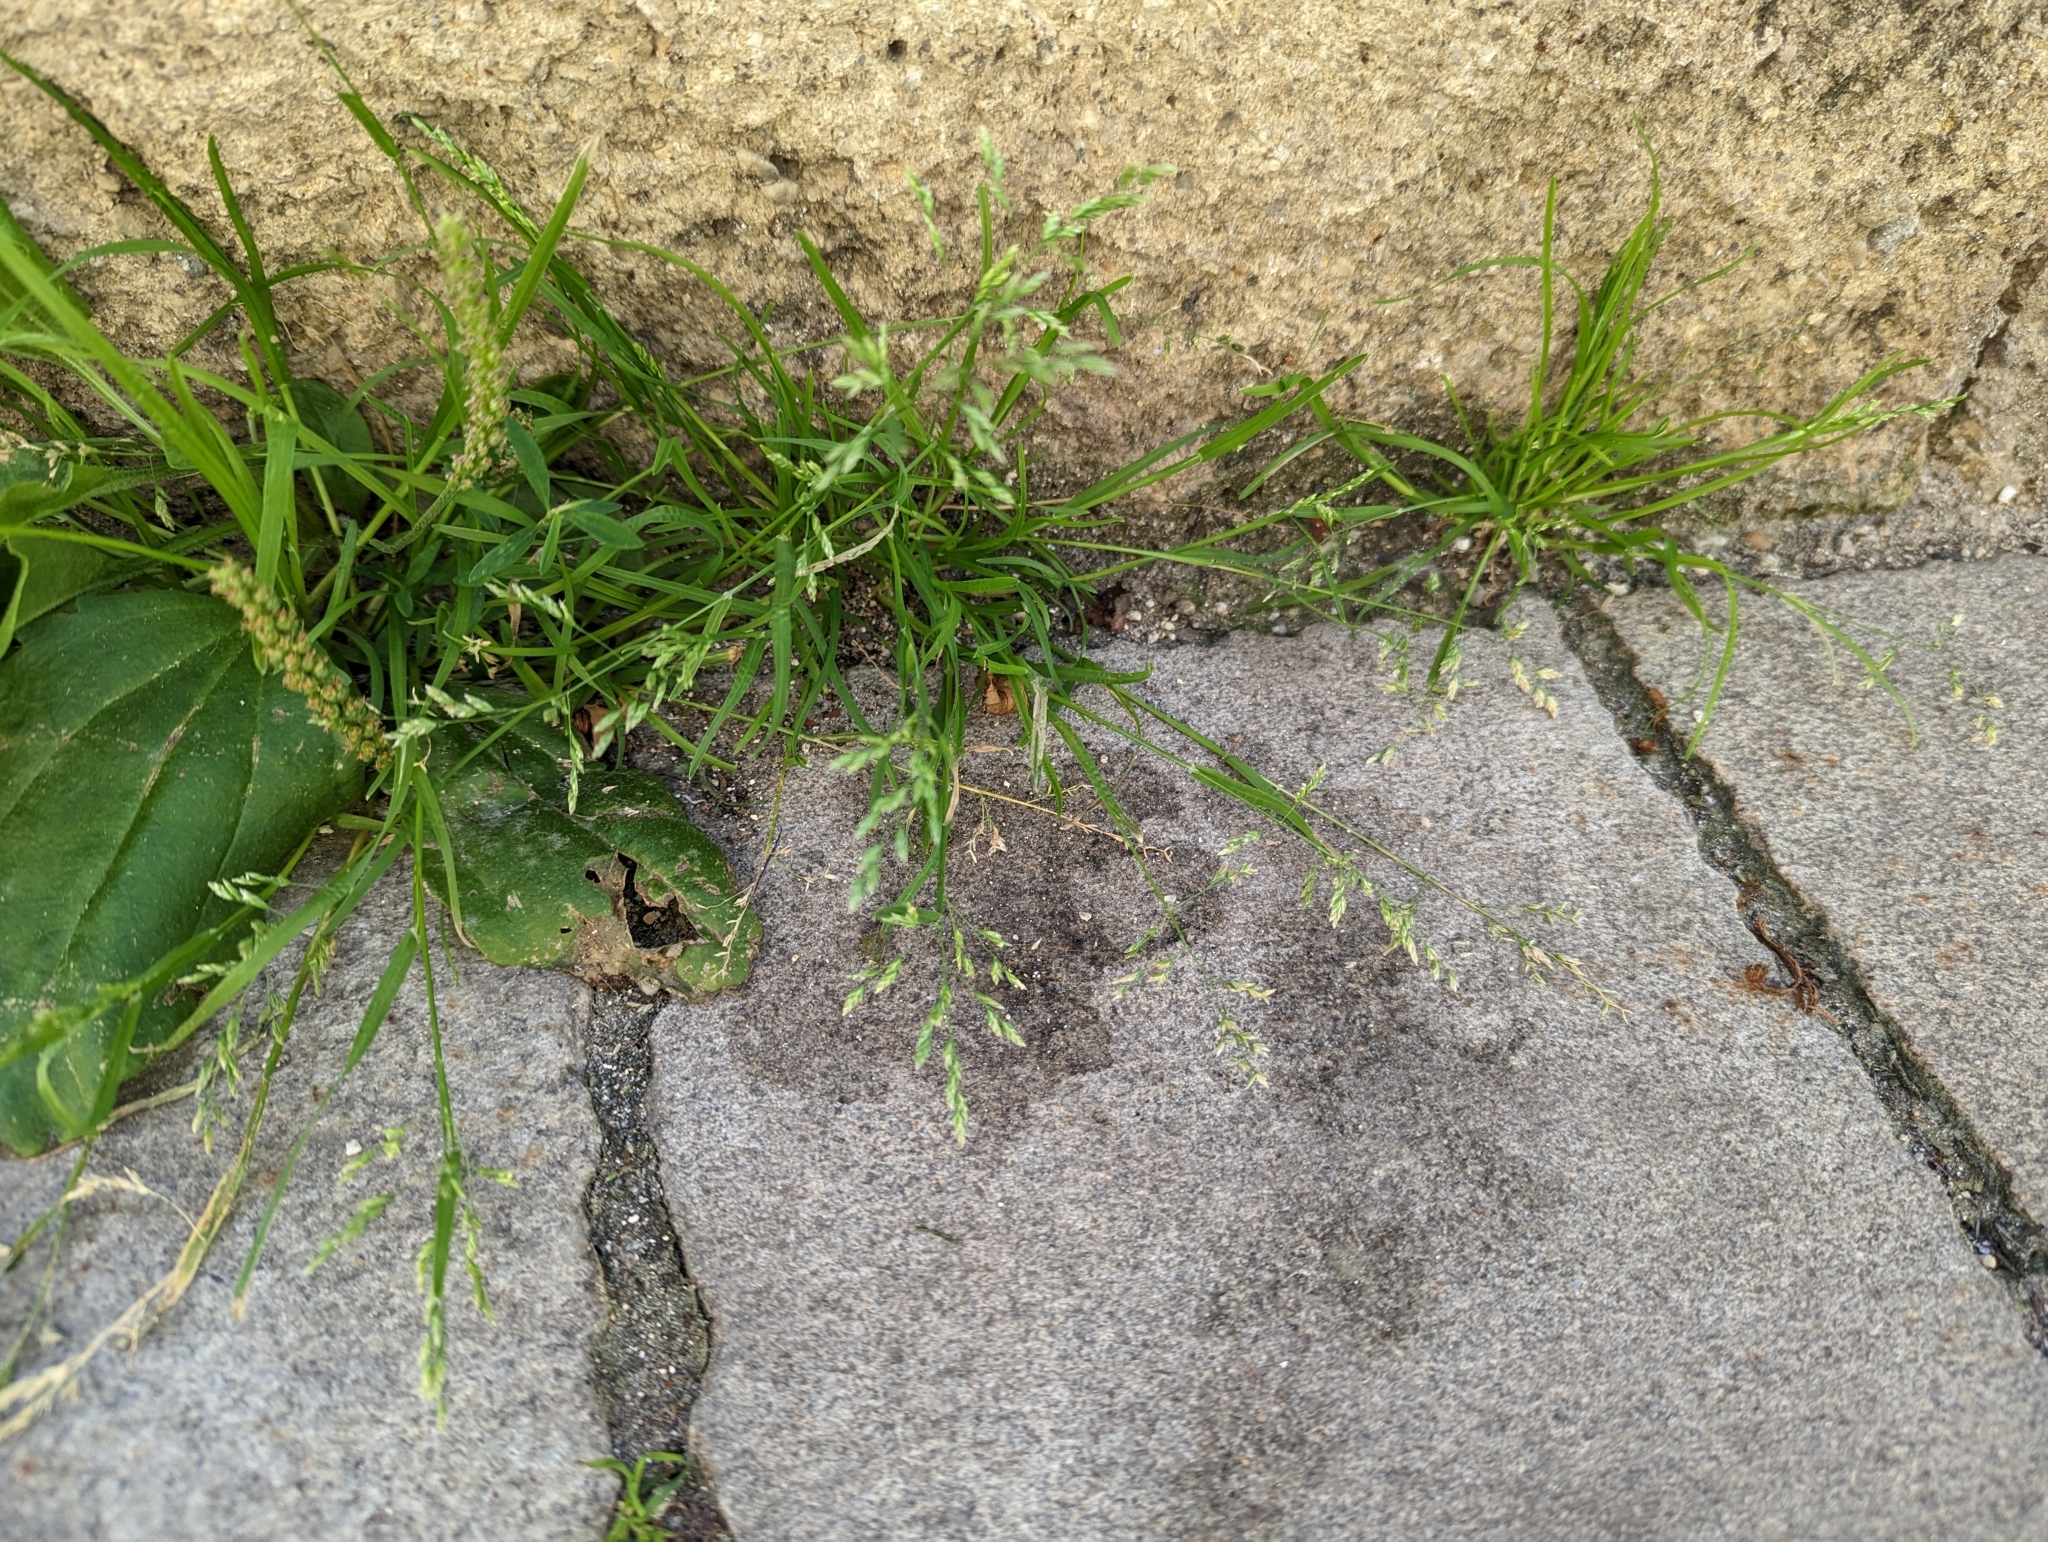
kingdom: Plantae
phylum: Tracheophyta
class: Liliopsida
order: Poales
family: Poaceae
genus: Poa
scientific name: Poa annua
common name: Annual bluegrass
